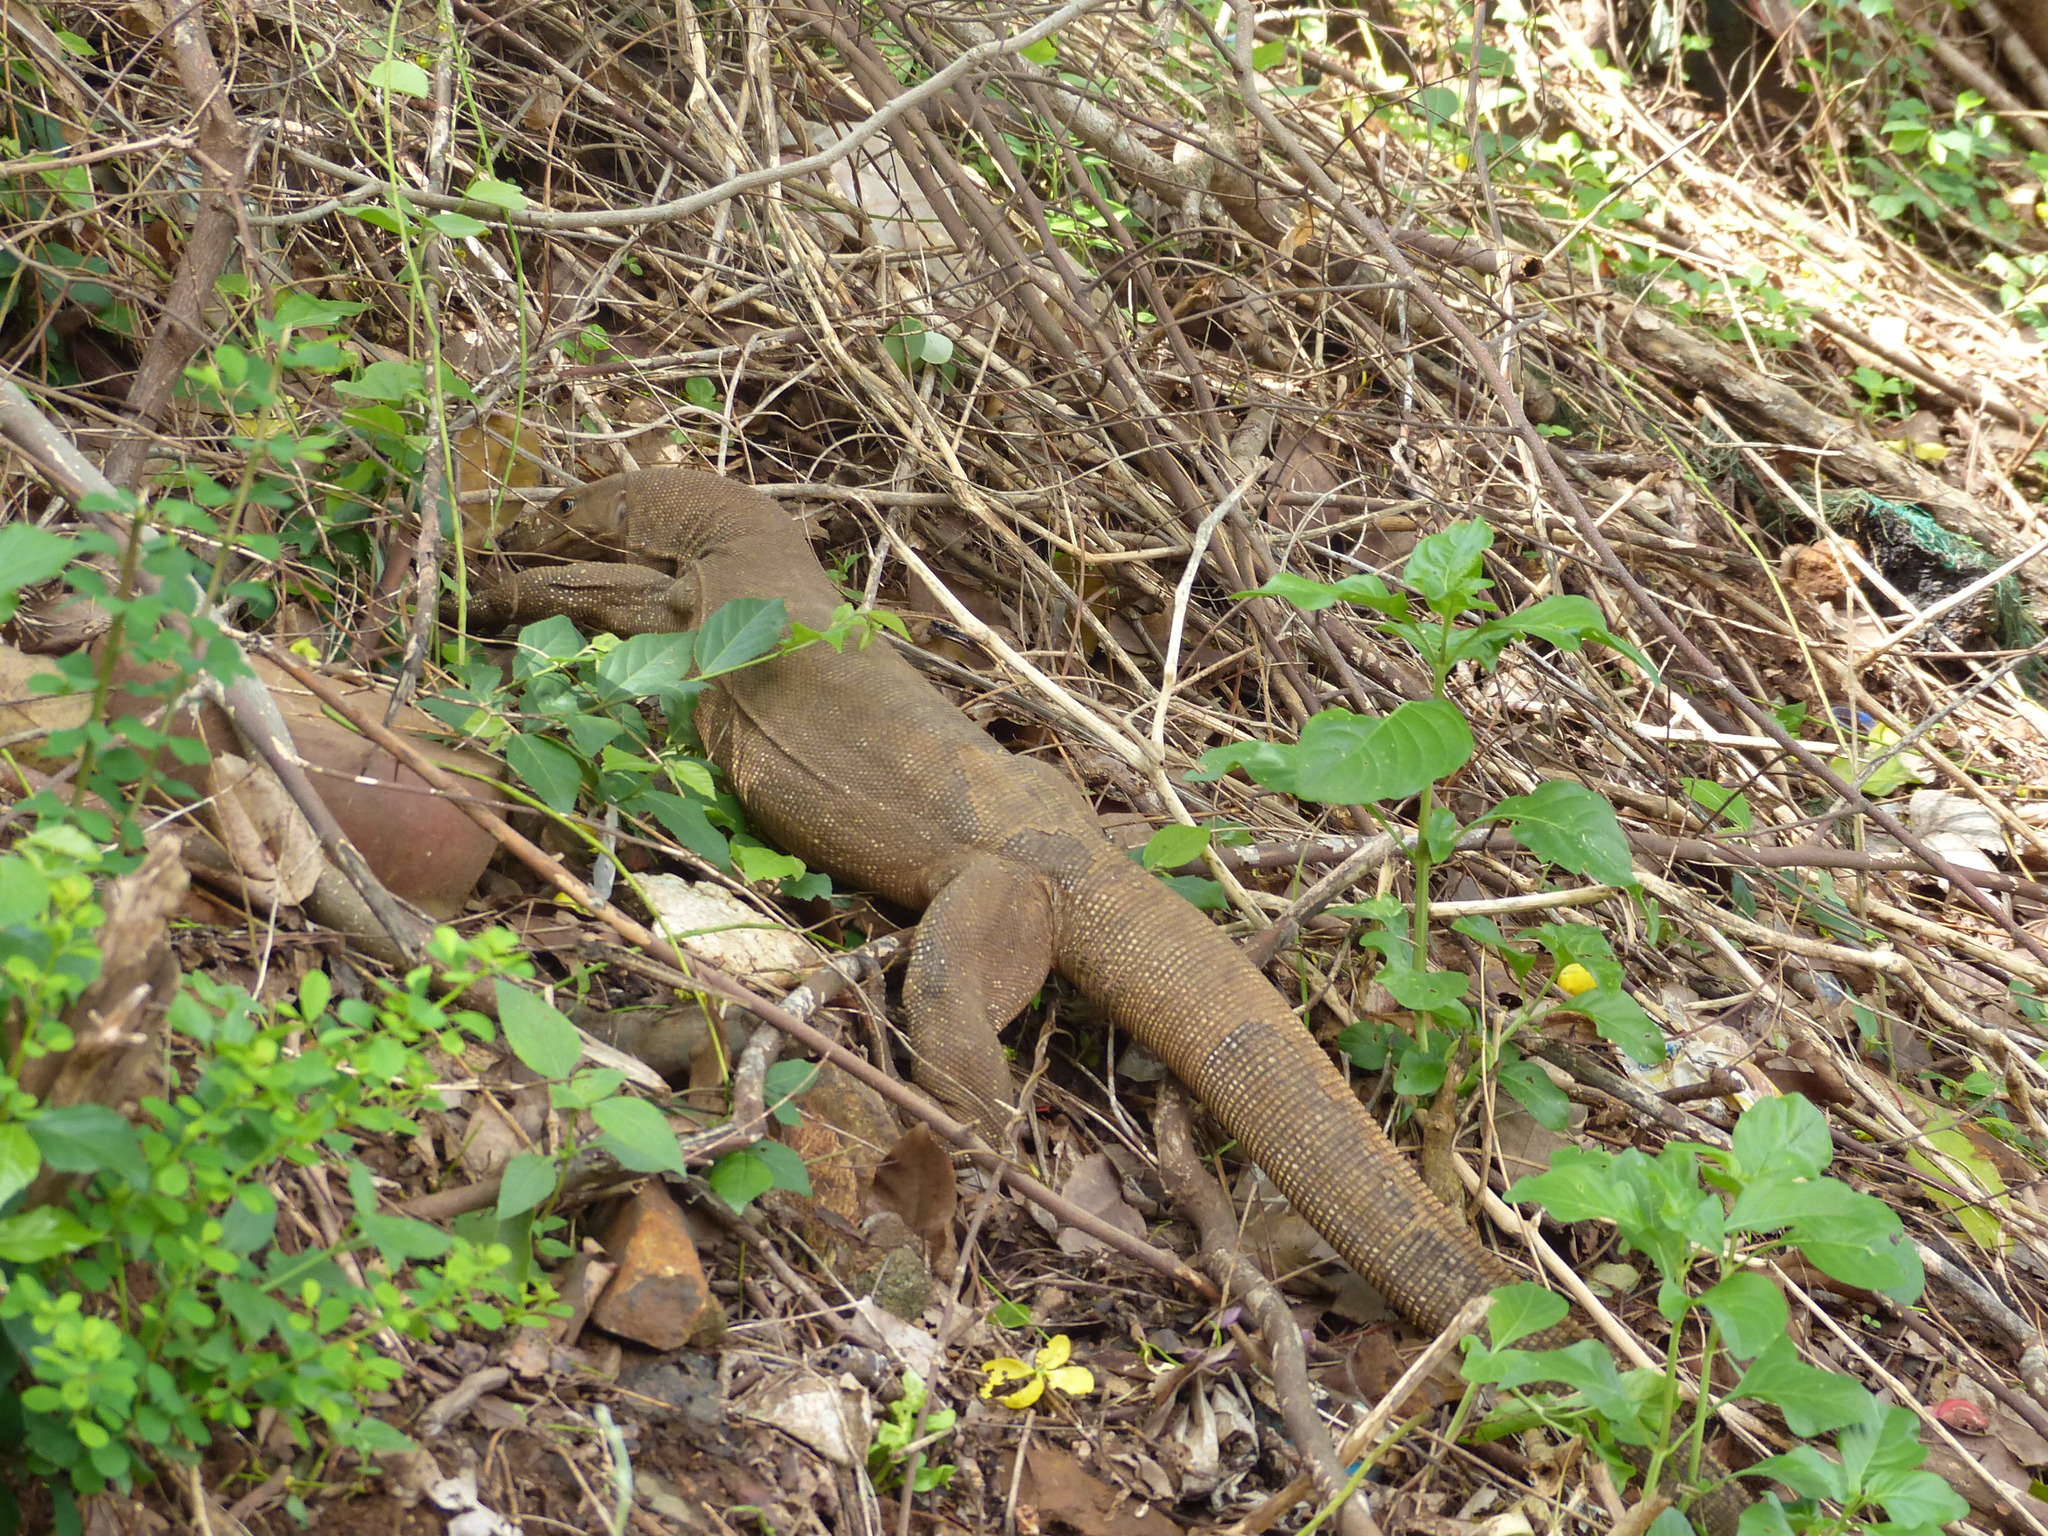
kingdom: Animalia
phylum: Chordata
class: Squamata
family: Varanidae
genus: Varanus
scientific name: Varanus bengalensis
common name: Bengal monitor
